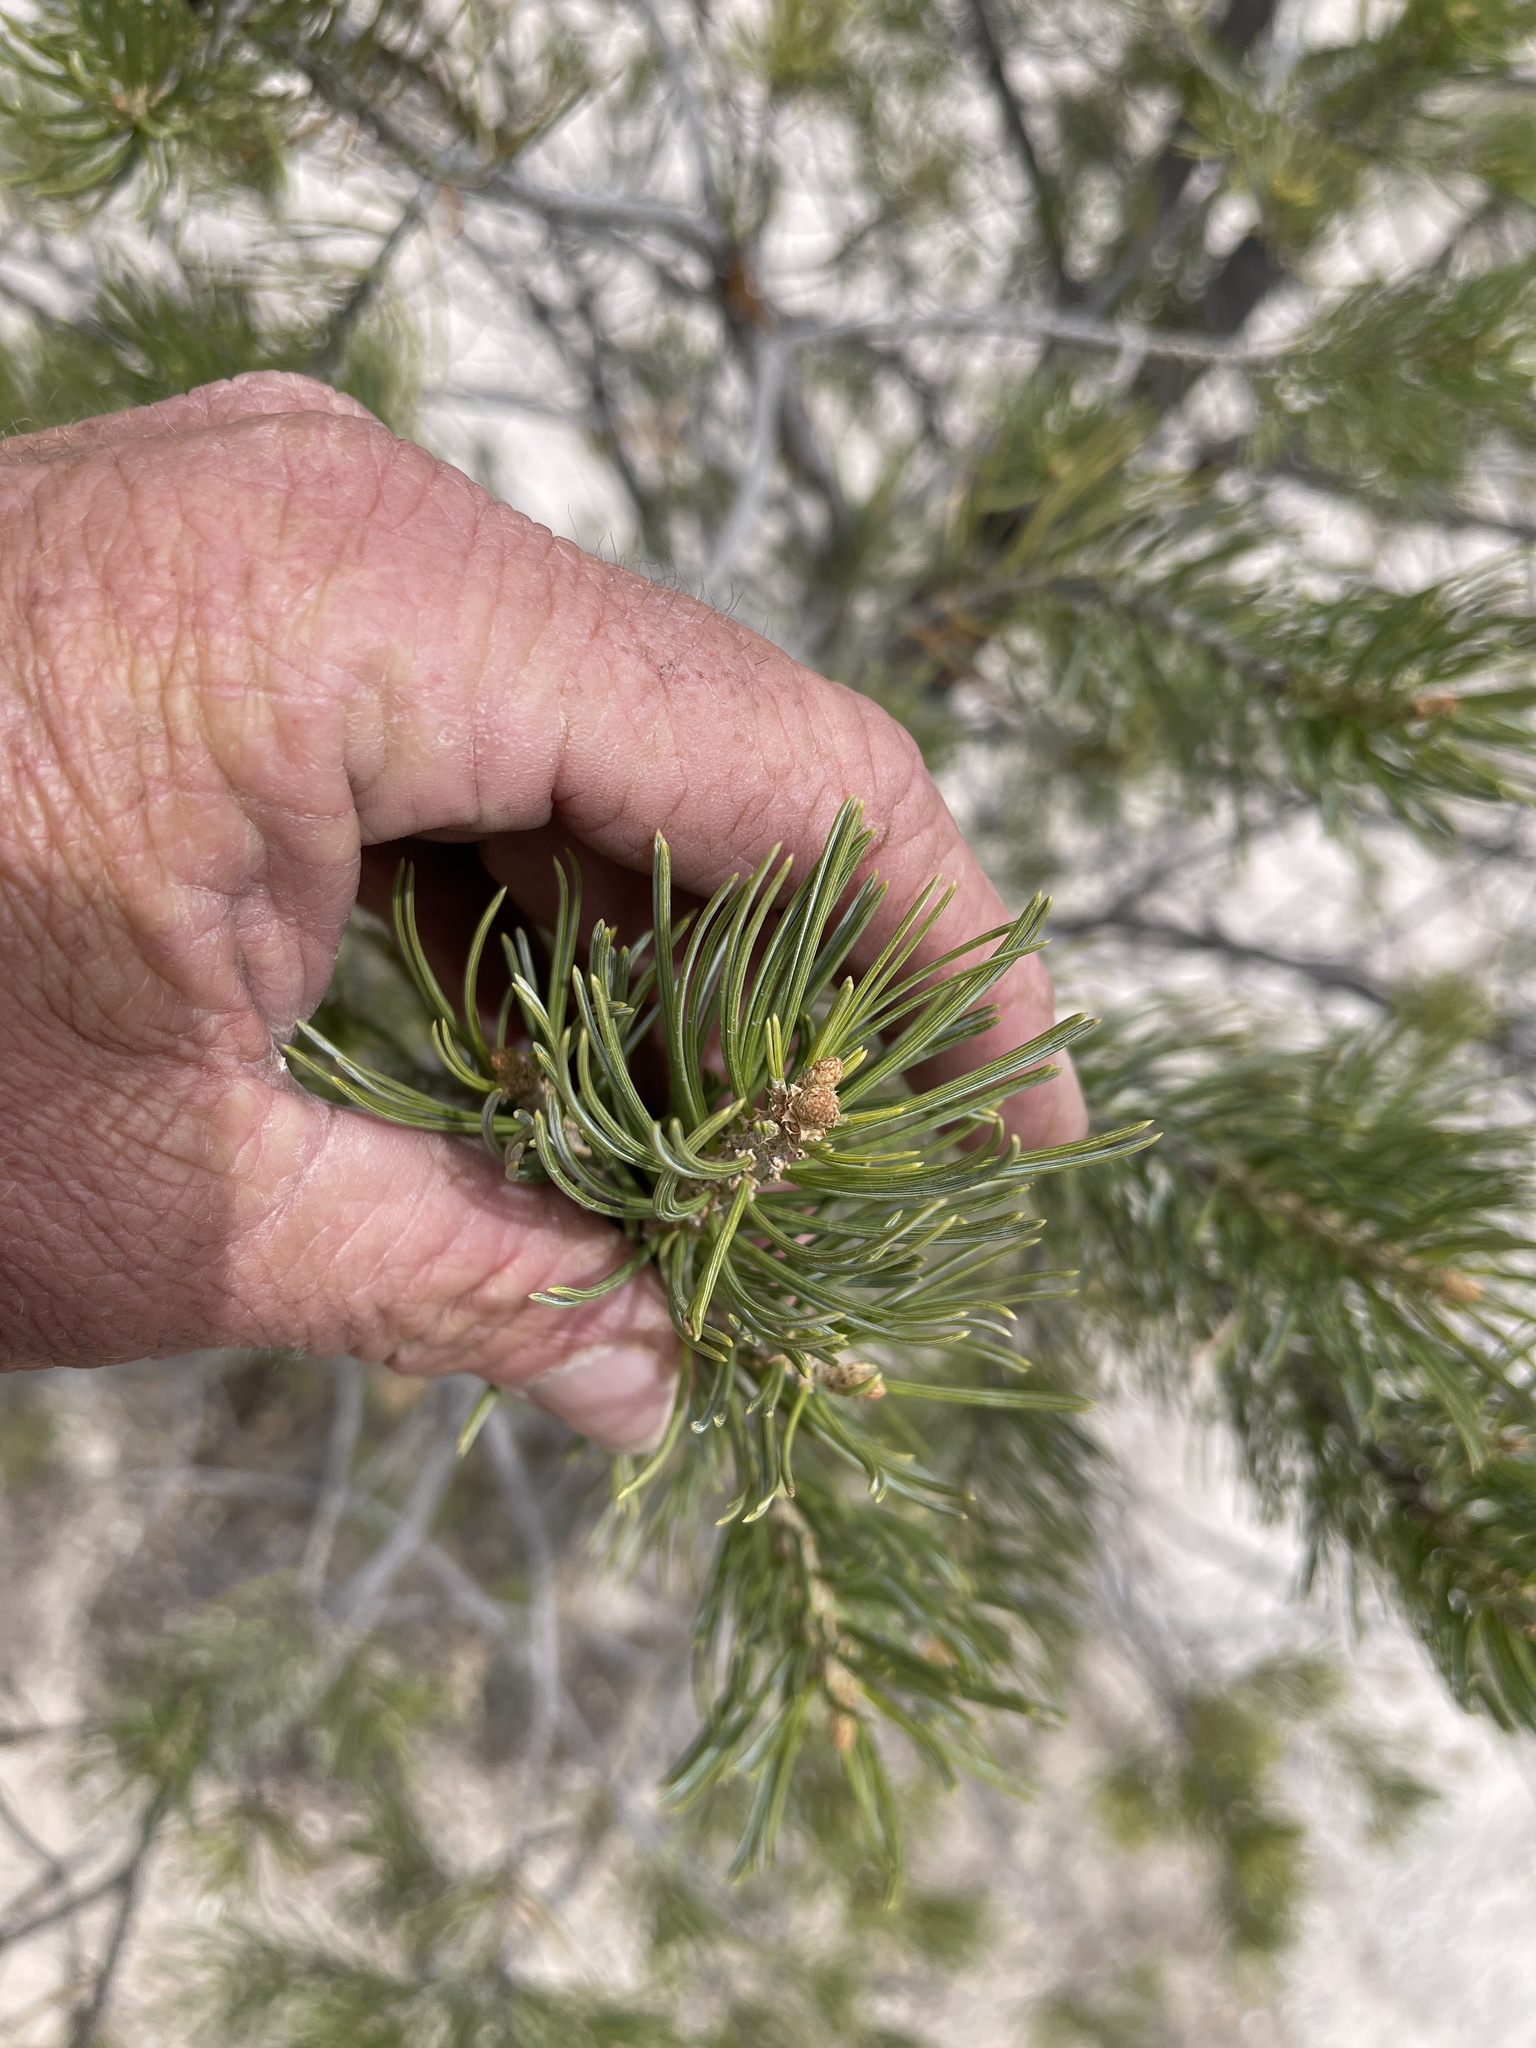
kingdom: Plantae
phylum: Tracheophyta
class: Pinopsida
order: Pinales
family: Pinaceae
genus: Pinus
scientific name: Pinus edulis
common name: Colorado pinyon
